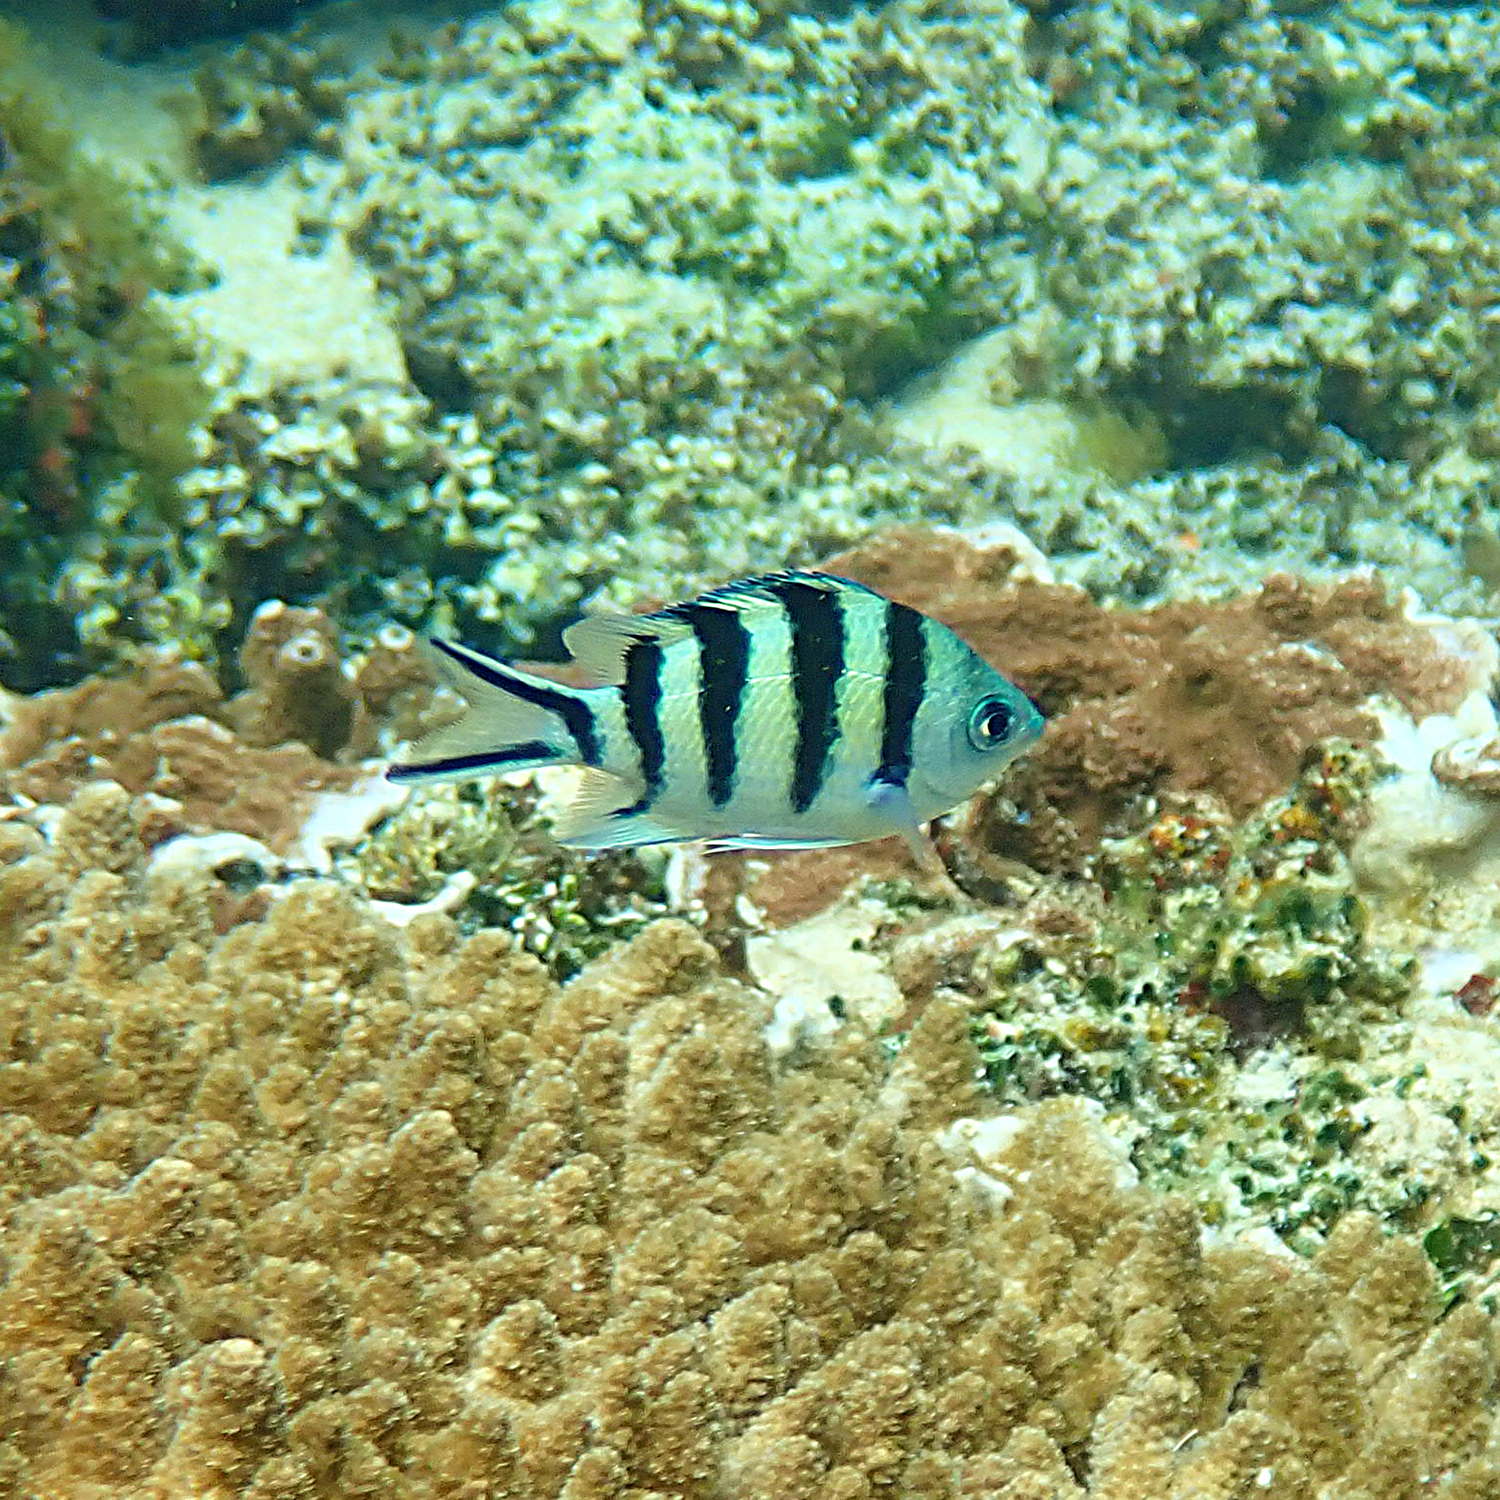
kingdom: Animalia
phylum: Chordata
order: Perciformes
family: Pomacentridae
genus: Abudefduf
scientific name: Abudefduf sexfasciatus
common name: Scissortail sergeant
